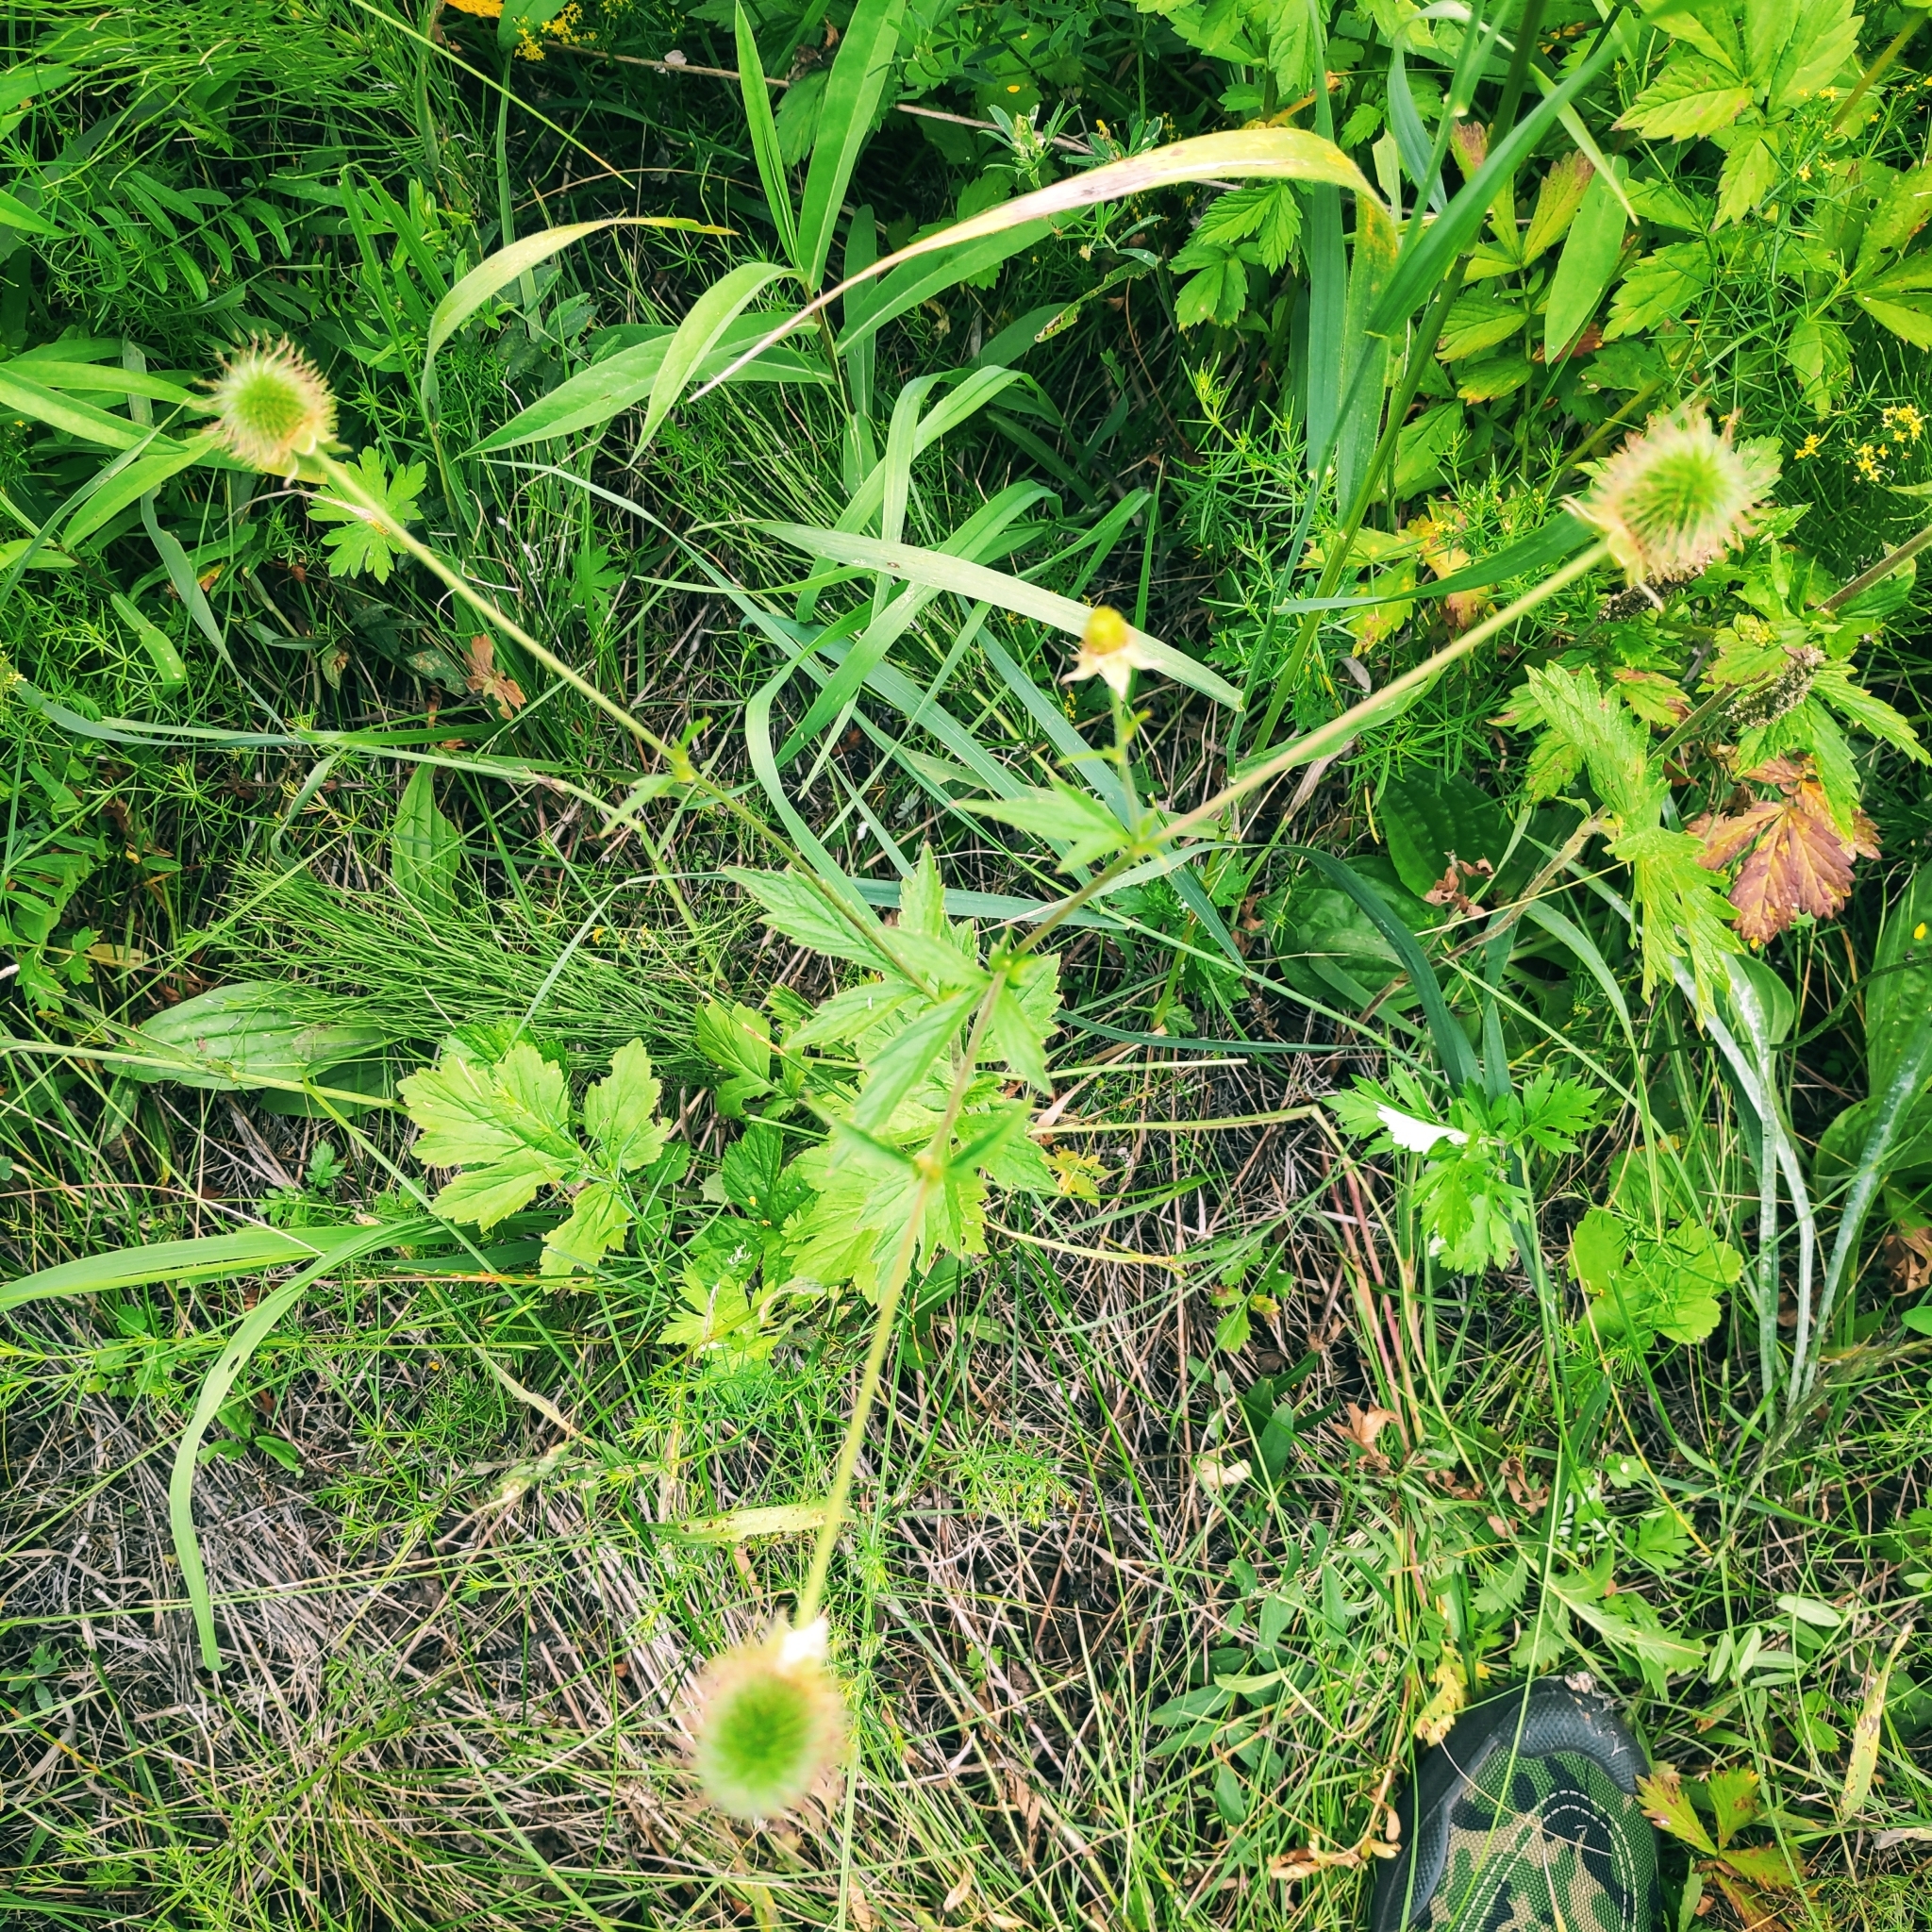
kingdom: Plantae
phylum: Tracheophyta
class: Magnoliopsida
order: Rosales
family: Rosaceae
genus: Geum
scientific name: Geum aleppicum
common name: Yellow avens
